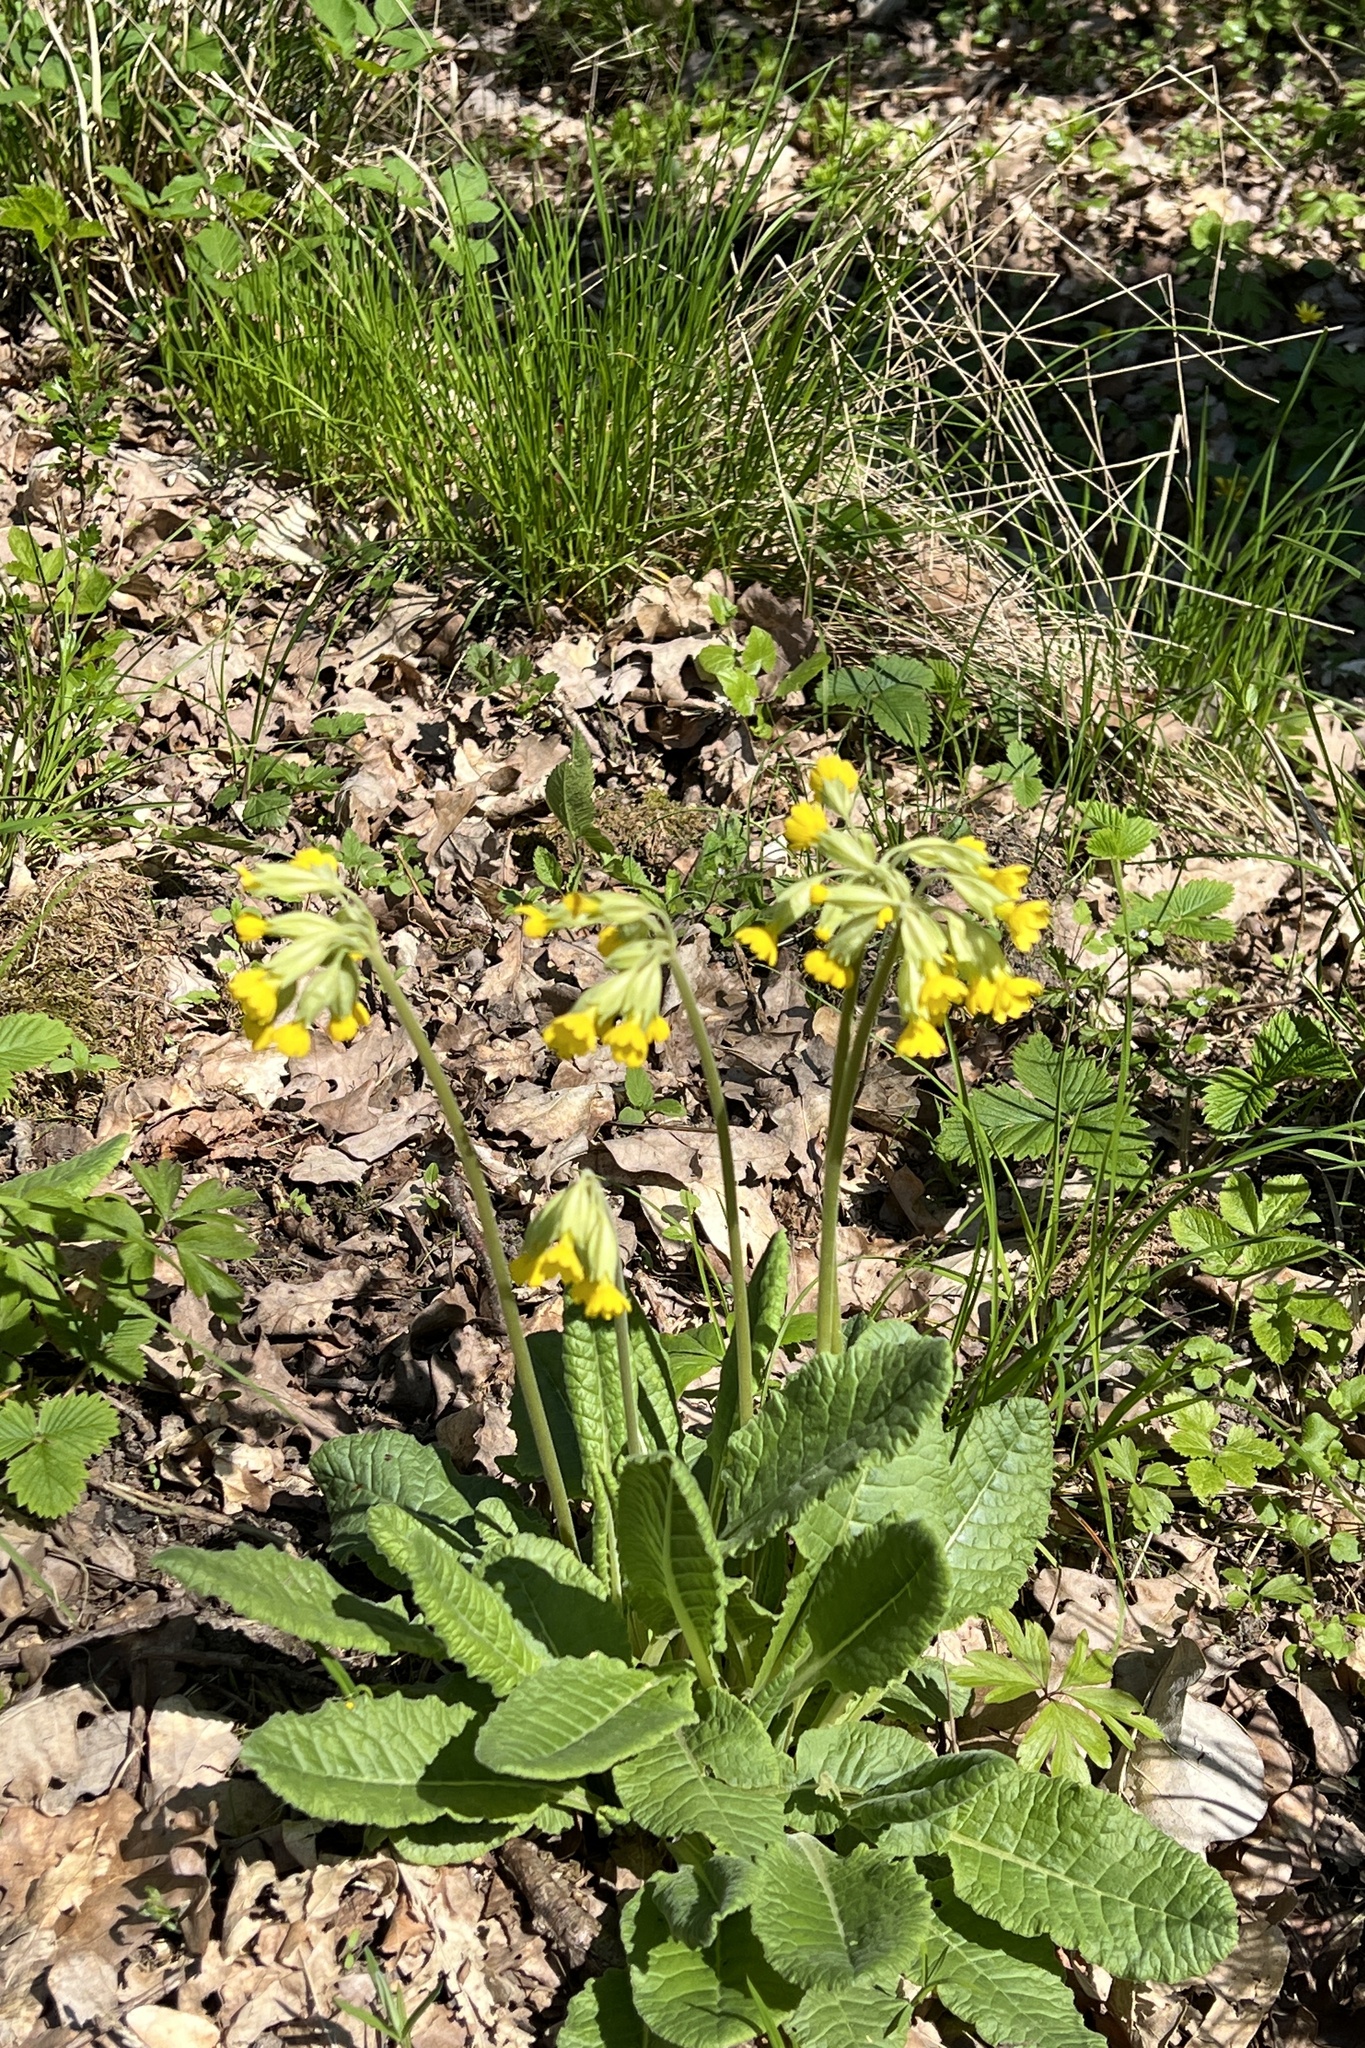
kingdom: Plantae
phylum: Tracheophyta
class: Magnoliopsida
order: Ericales
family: Primulaceae
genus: Primula
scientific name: Primula veris
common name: Cowslip
